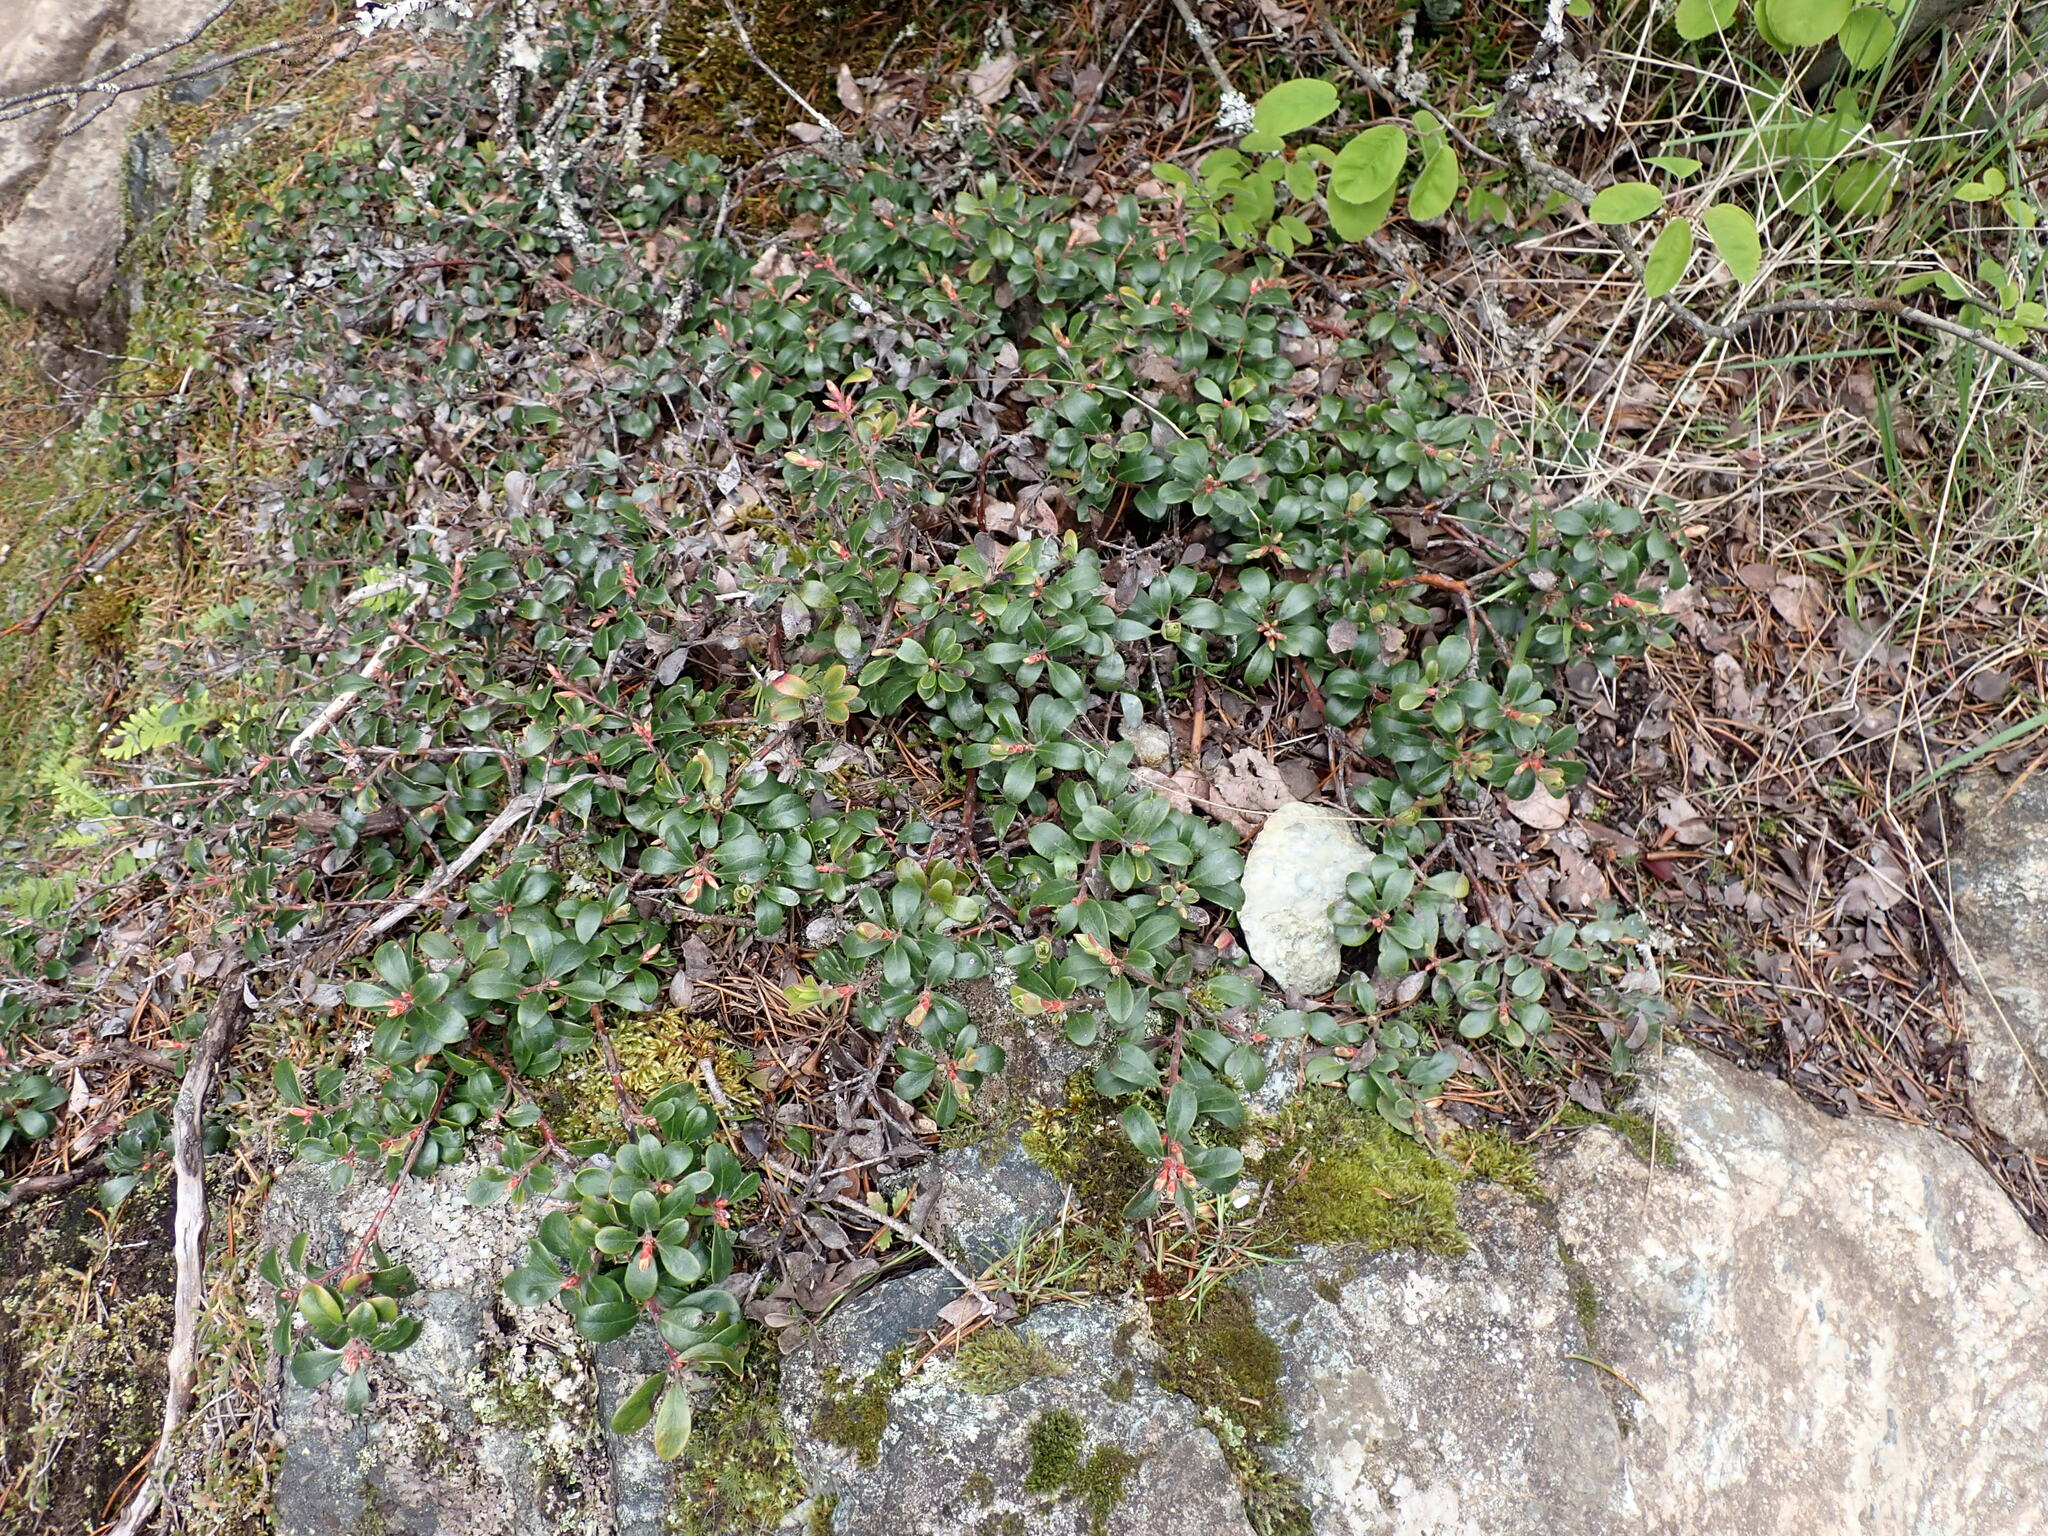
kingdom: Plantae
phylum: Tracheophyta
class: Magnoliopsida
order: Ericales
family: Ericaceae
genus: Arctostaphylos
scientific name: Arctostaphylos uva-ursi
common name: Bearberry
